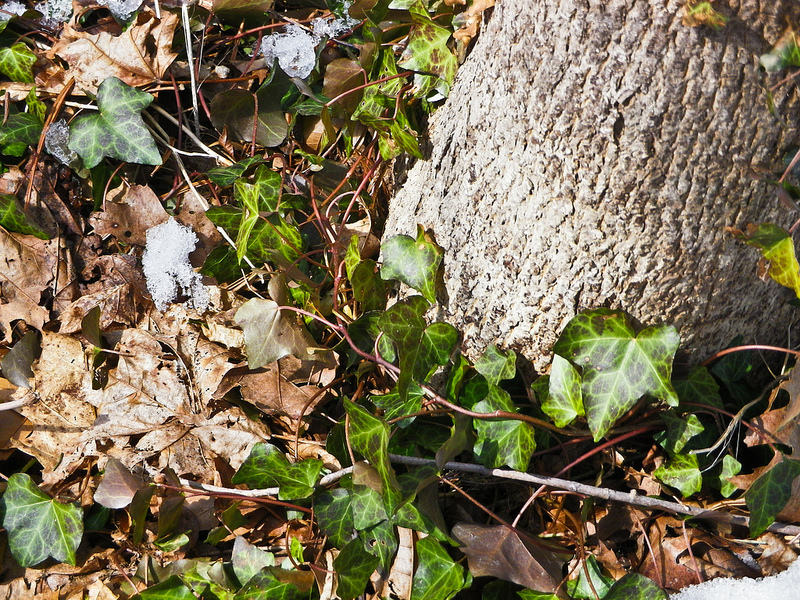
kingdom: Plantae
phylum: Tracheophyta
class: Magnoliopsida
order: Apiales
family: Araliaceae
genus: Hedera
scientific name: Hedera helix
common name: Ivy
